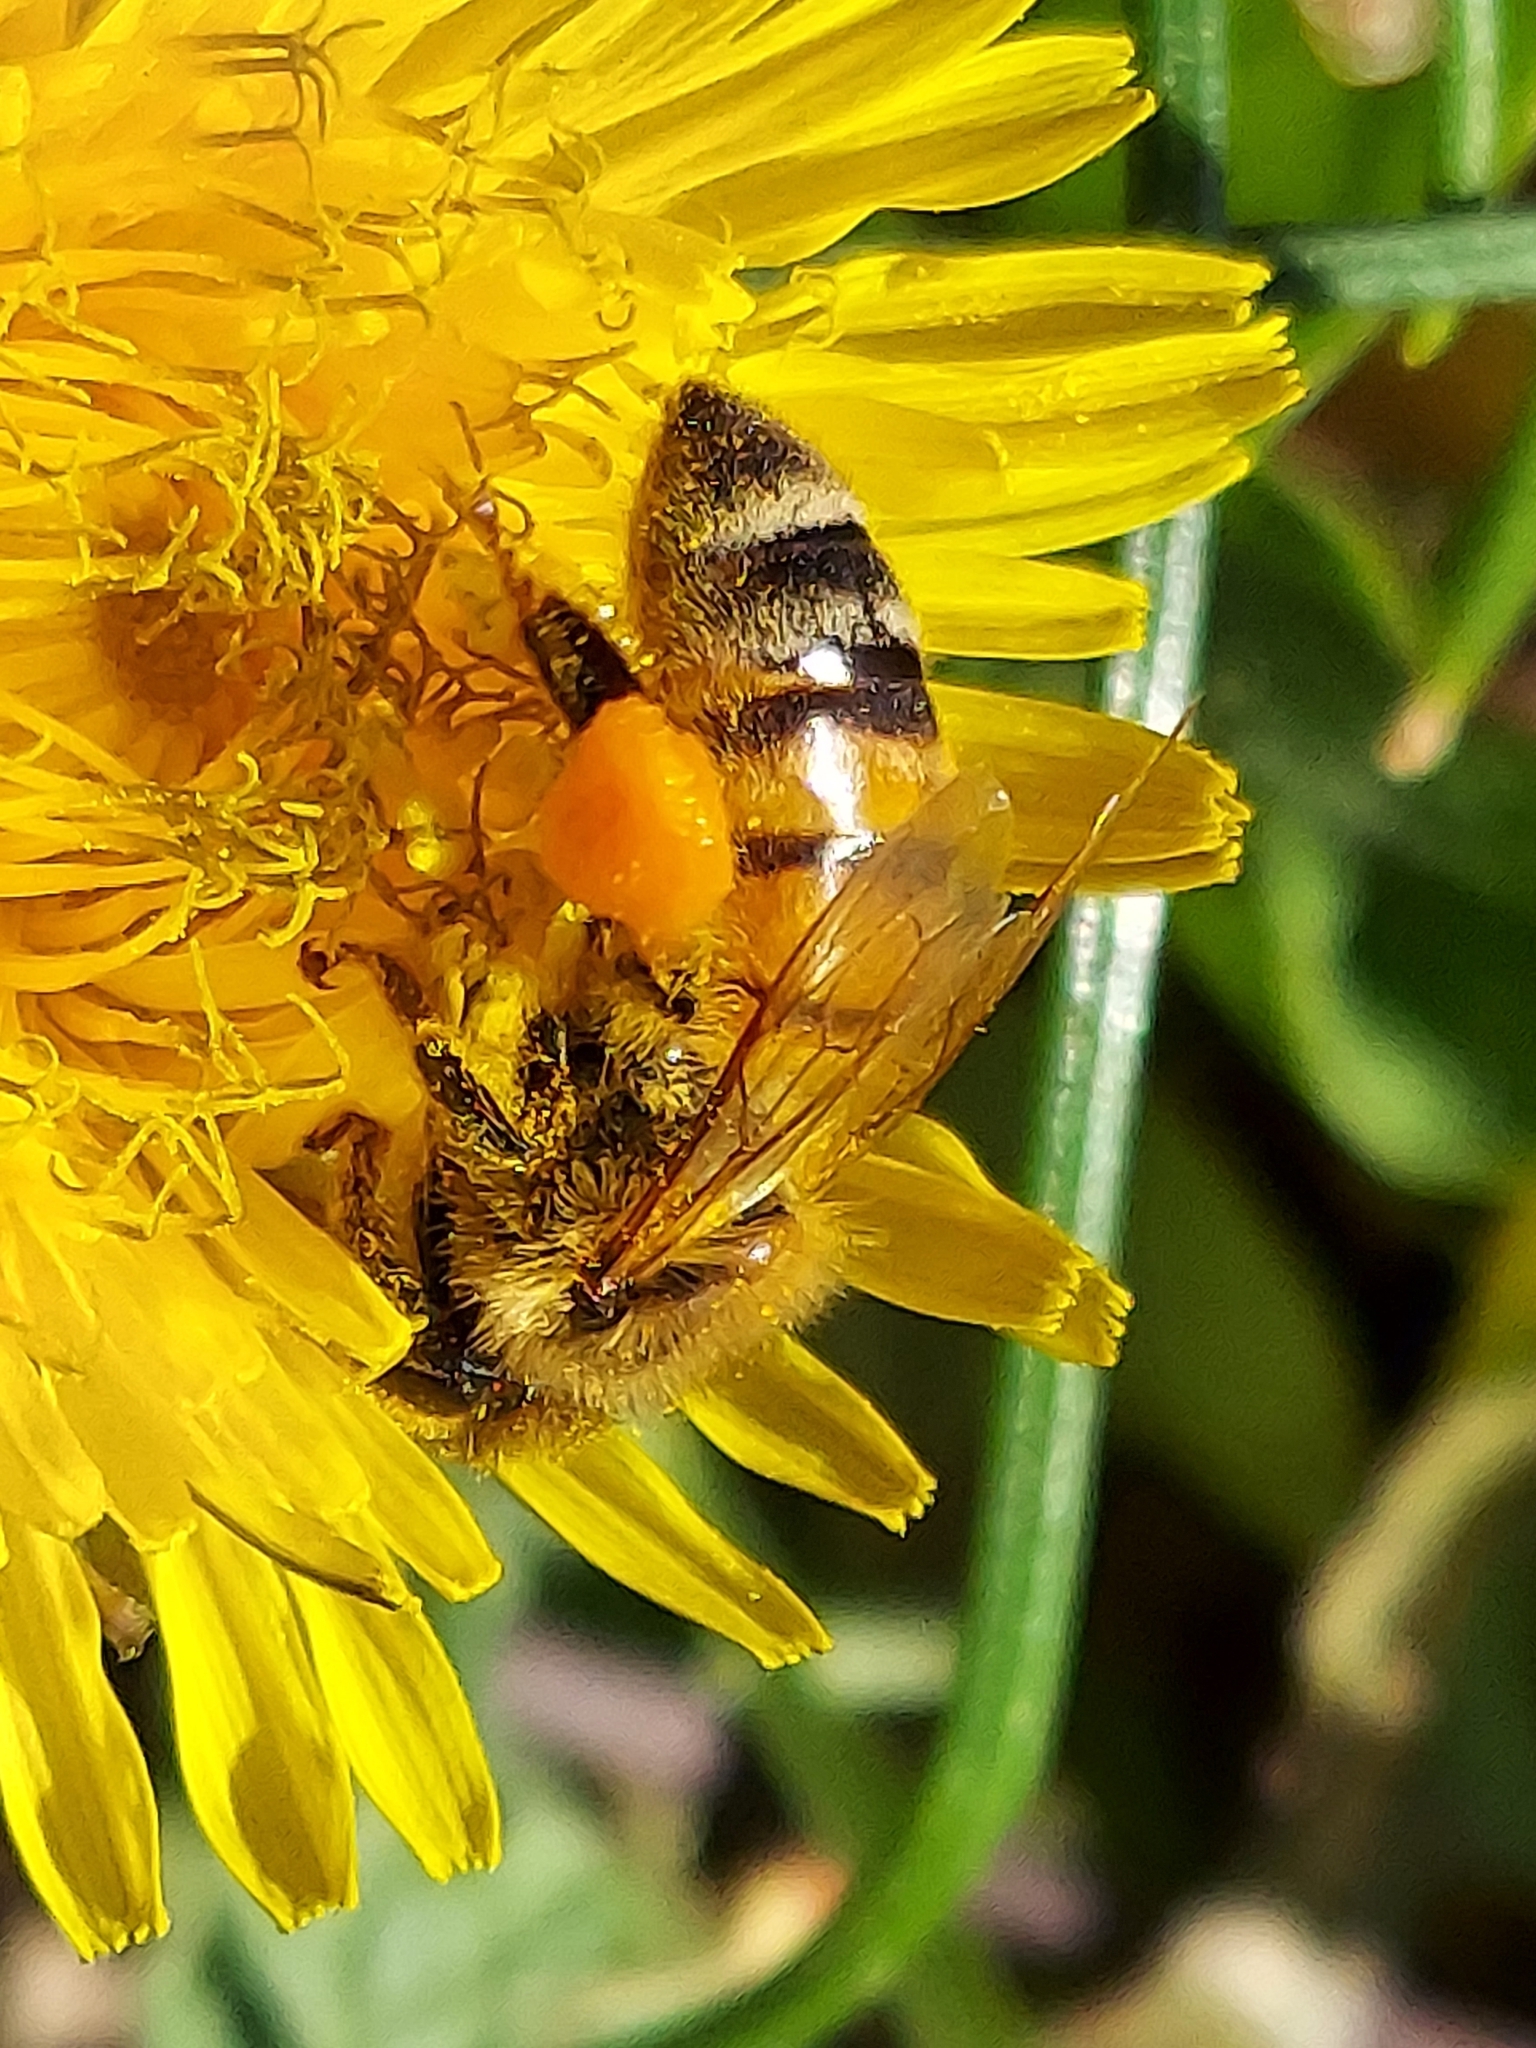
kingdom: Animalia
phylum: Arthropoda
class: Insecta
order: Hymenoptera
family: Apidae
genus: Apis
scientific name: Apis mellifera
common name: Honey bee
